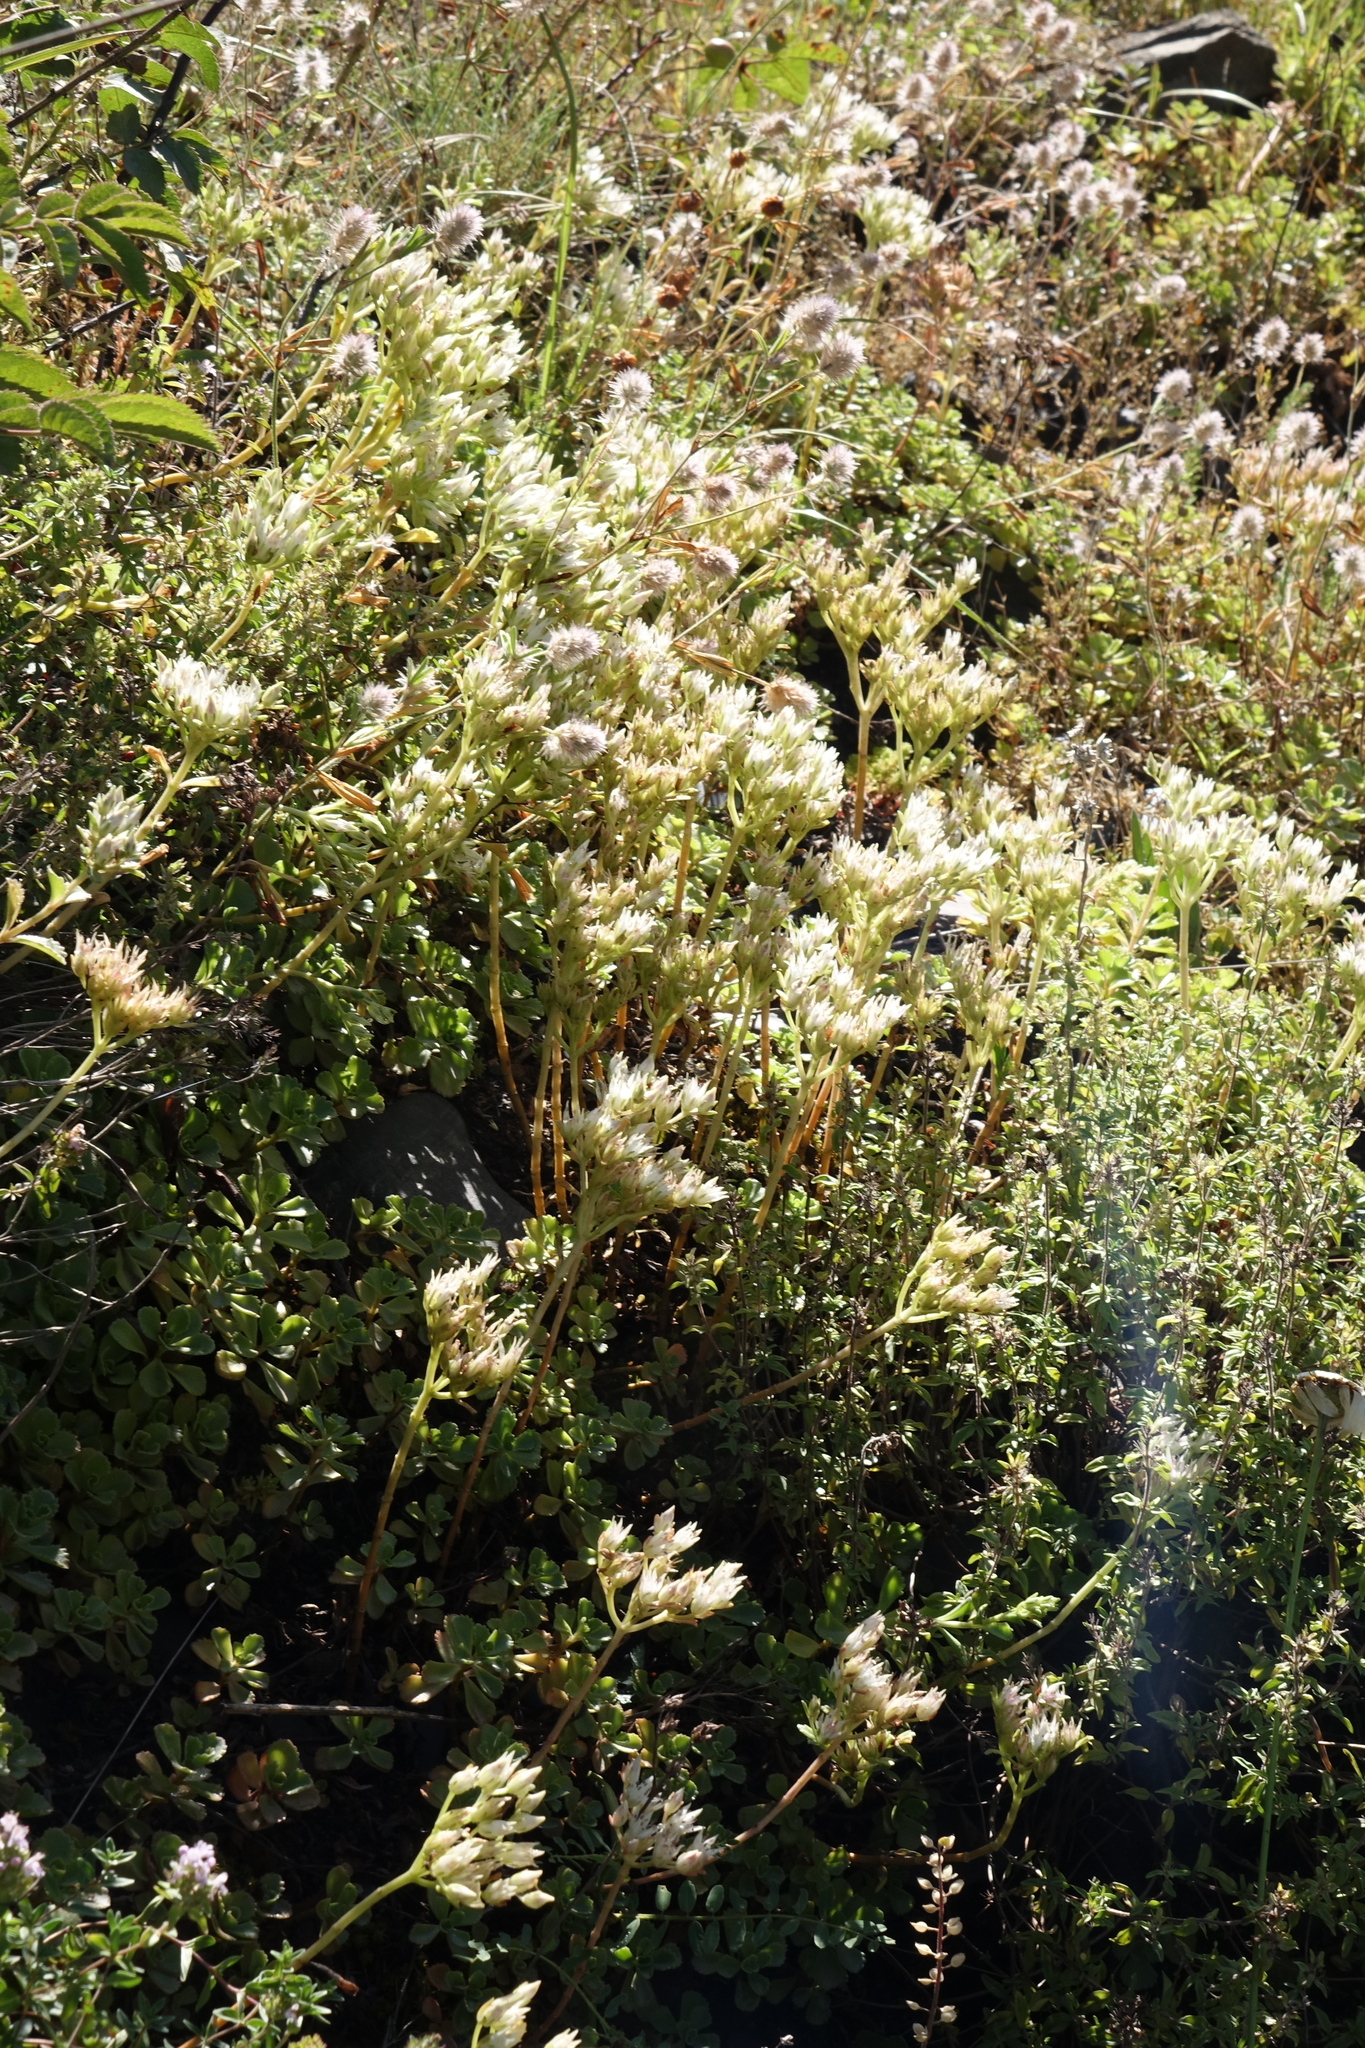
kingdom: Plantae
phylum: Tracheophyta
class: Magnoliopsida
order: Saxifragales
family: Crassulaceae
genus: Phedimus
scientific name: Phedimus spurius
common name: Caucasian stonecrop
